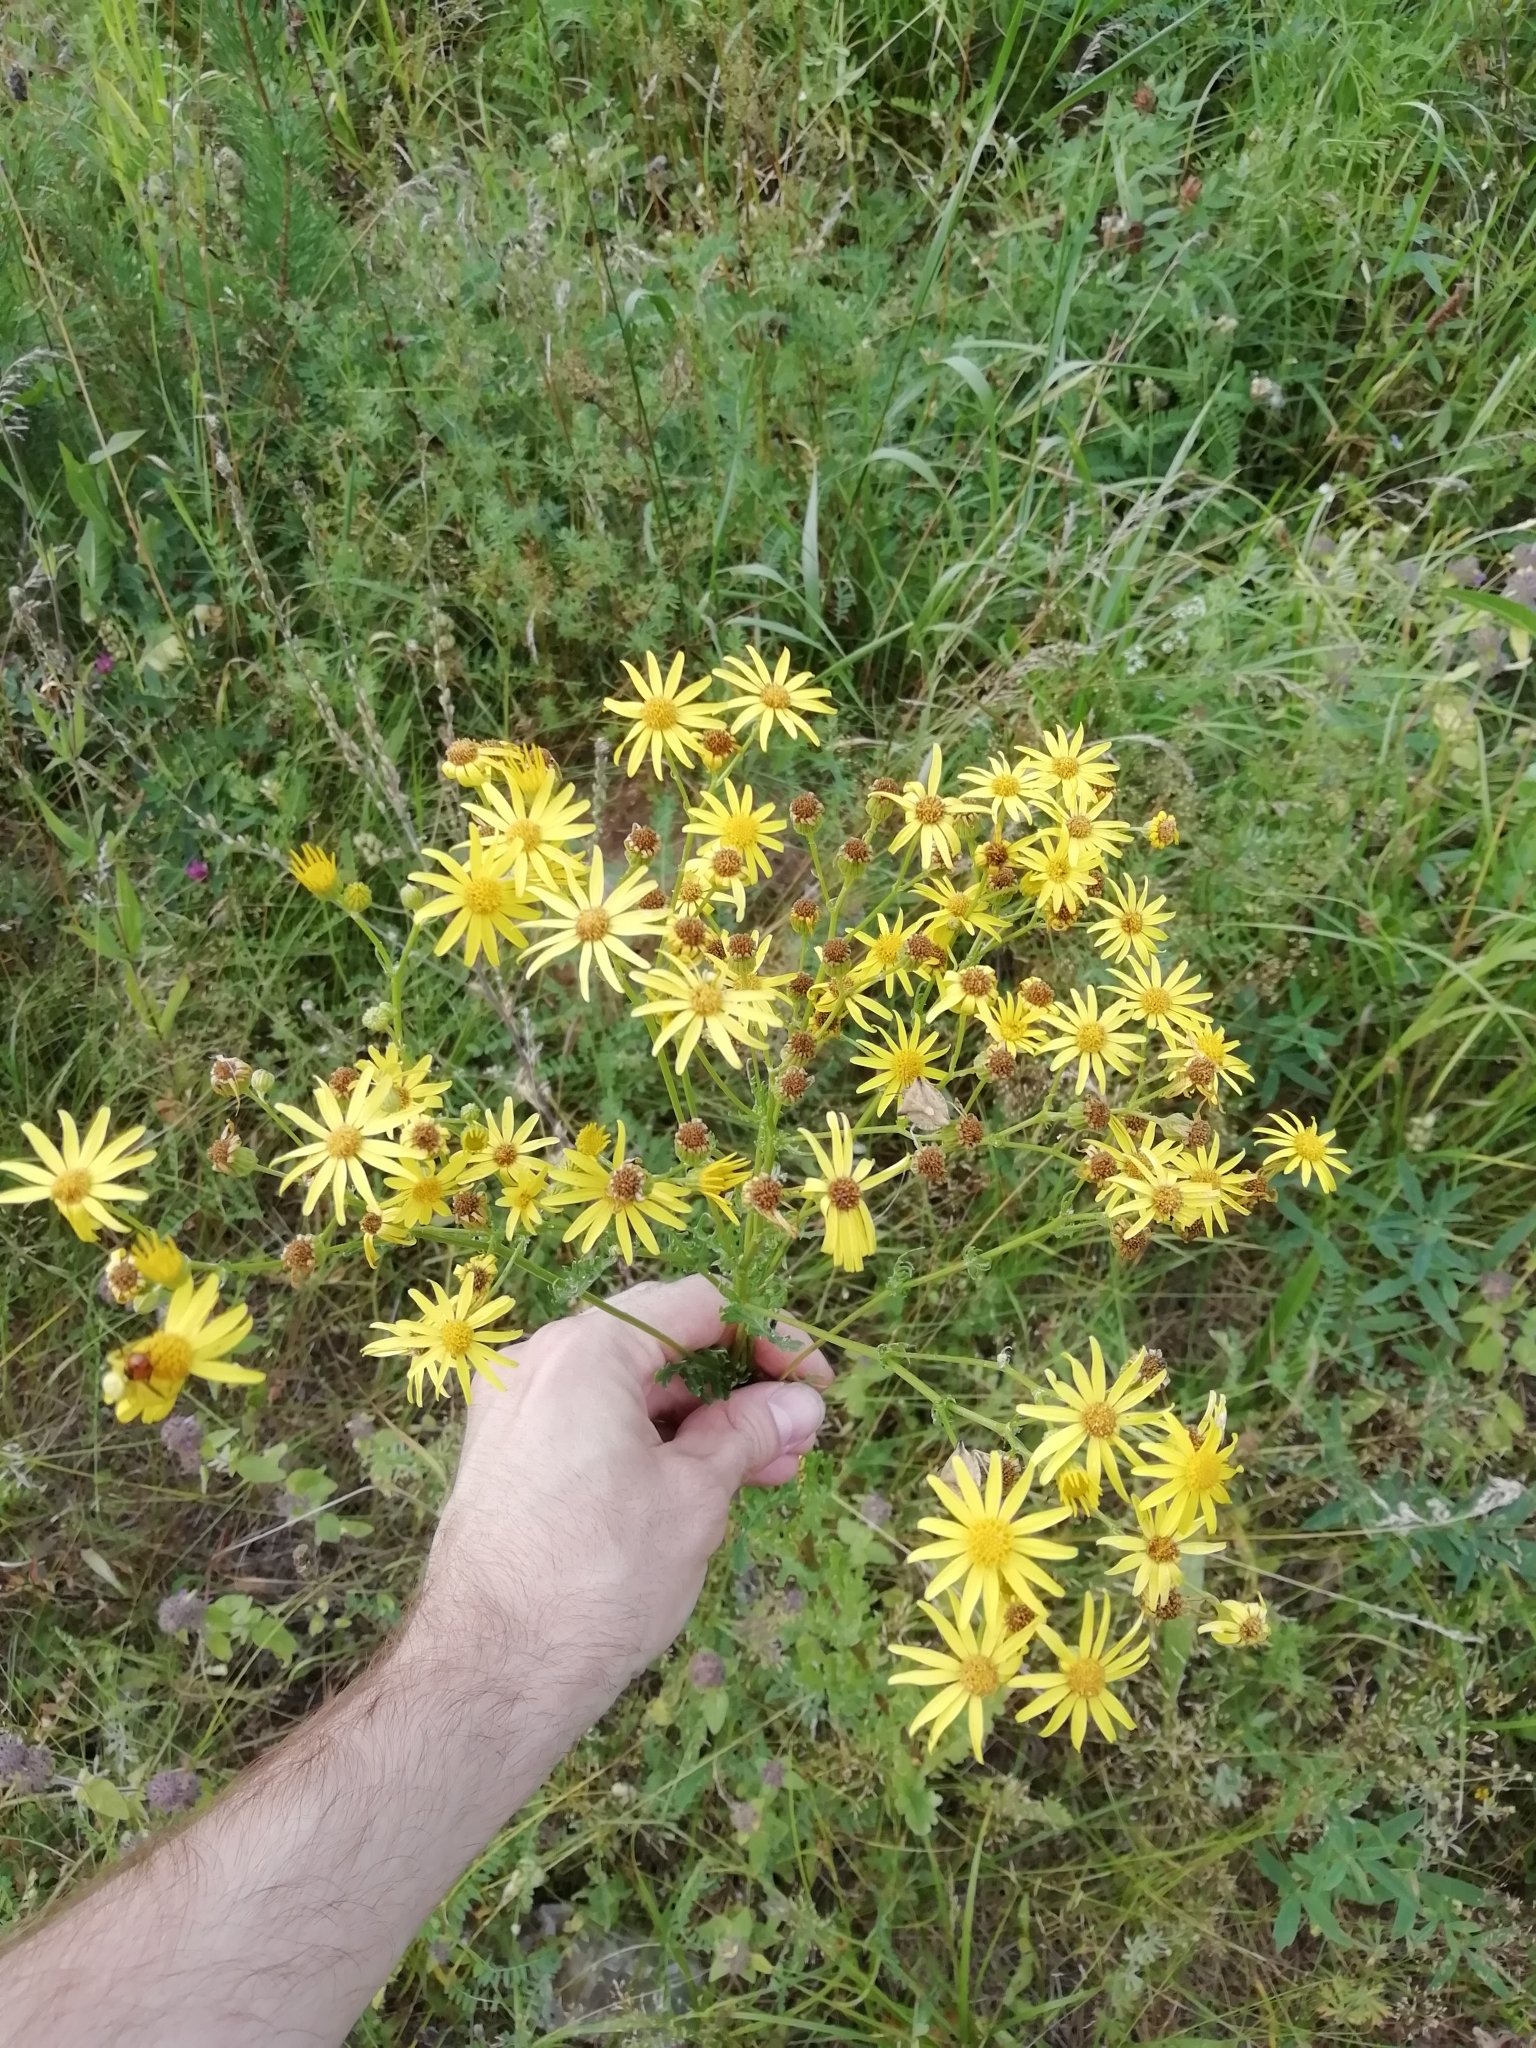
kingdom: Plantae
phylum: Tracheophyta
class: Magnoliopsida
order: Asterales
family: Asteraceae
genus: Jacobaea
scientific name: Jacobaea vulgaris
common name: Stinking willie
